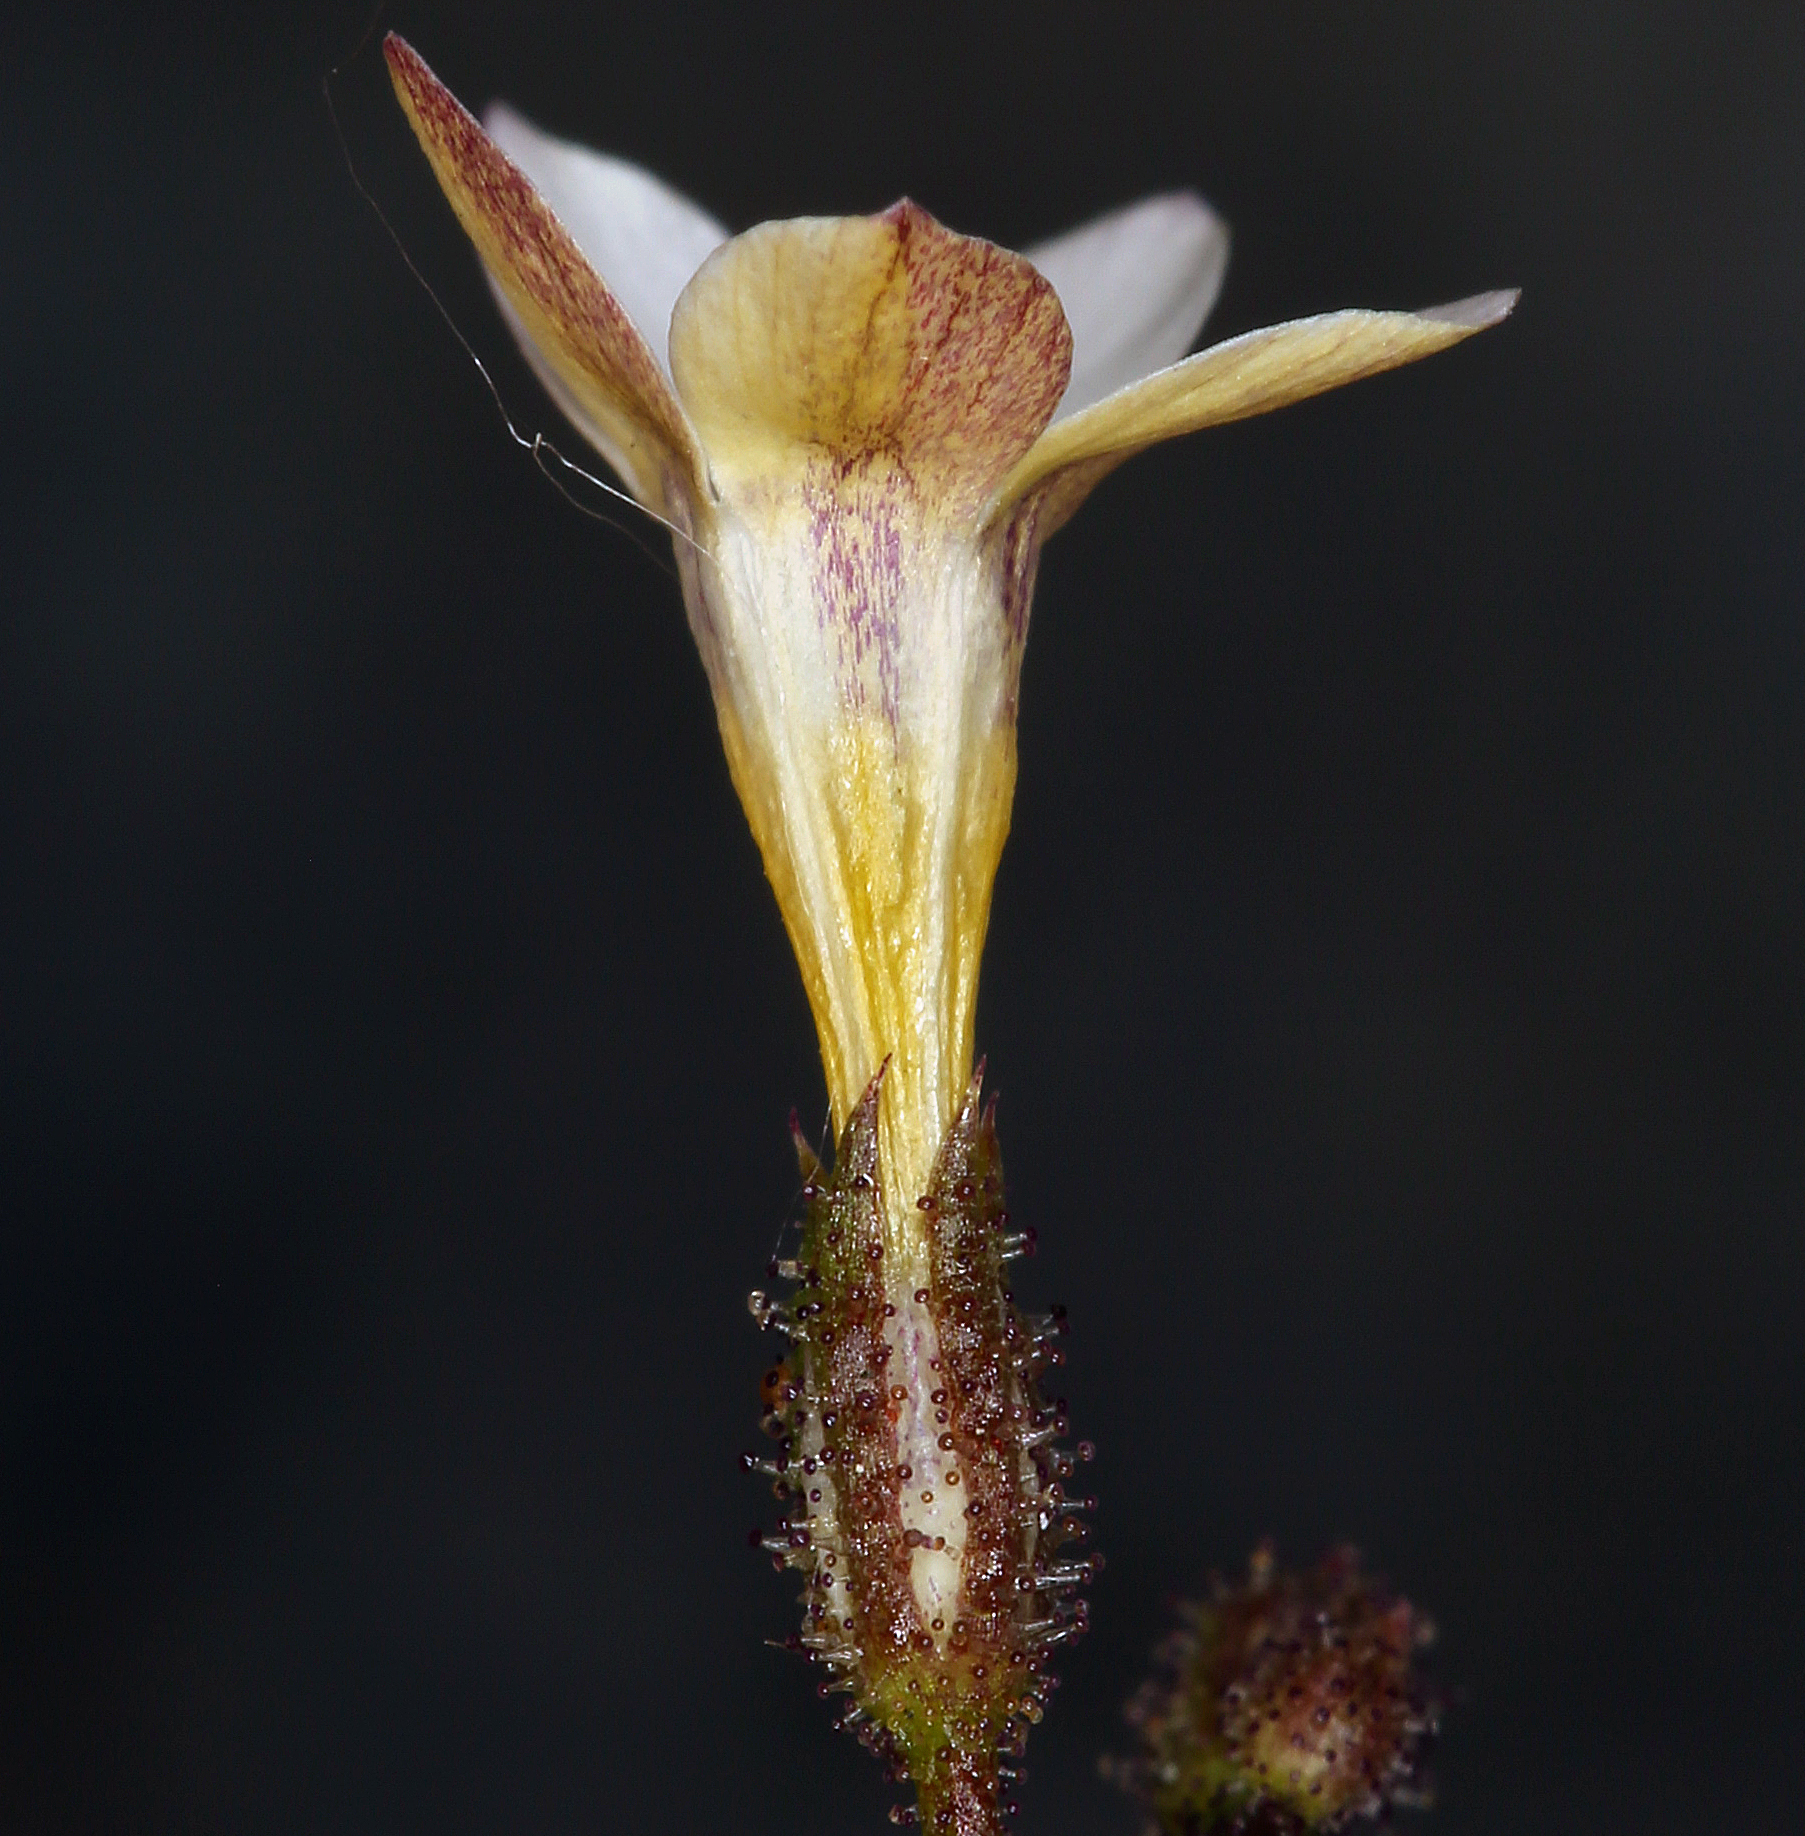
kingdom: Plantae
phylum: Tracheophyta
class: Magnoliopsida
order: Ericales
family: Polemoniaceae
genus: Gilia
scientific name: Gilia stellata
